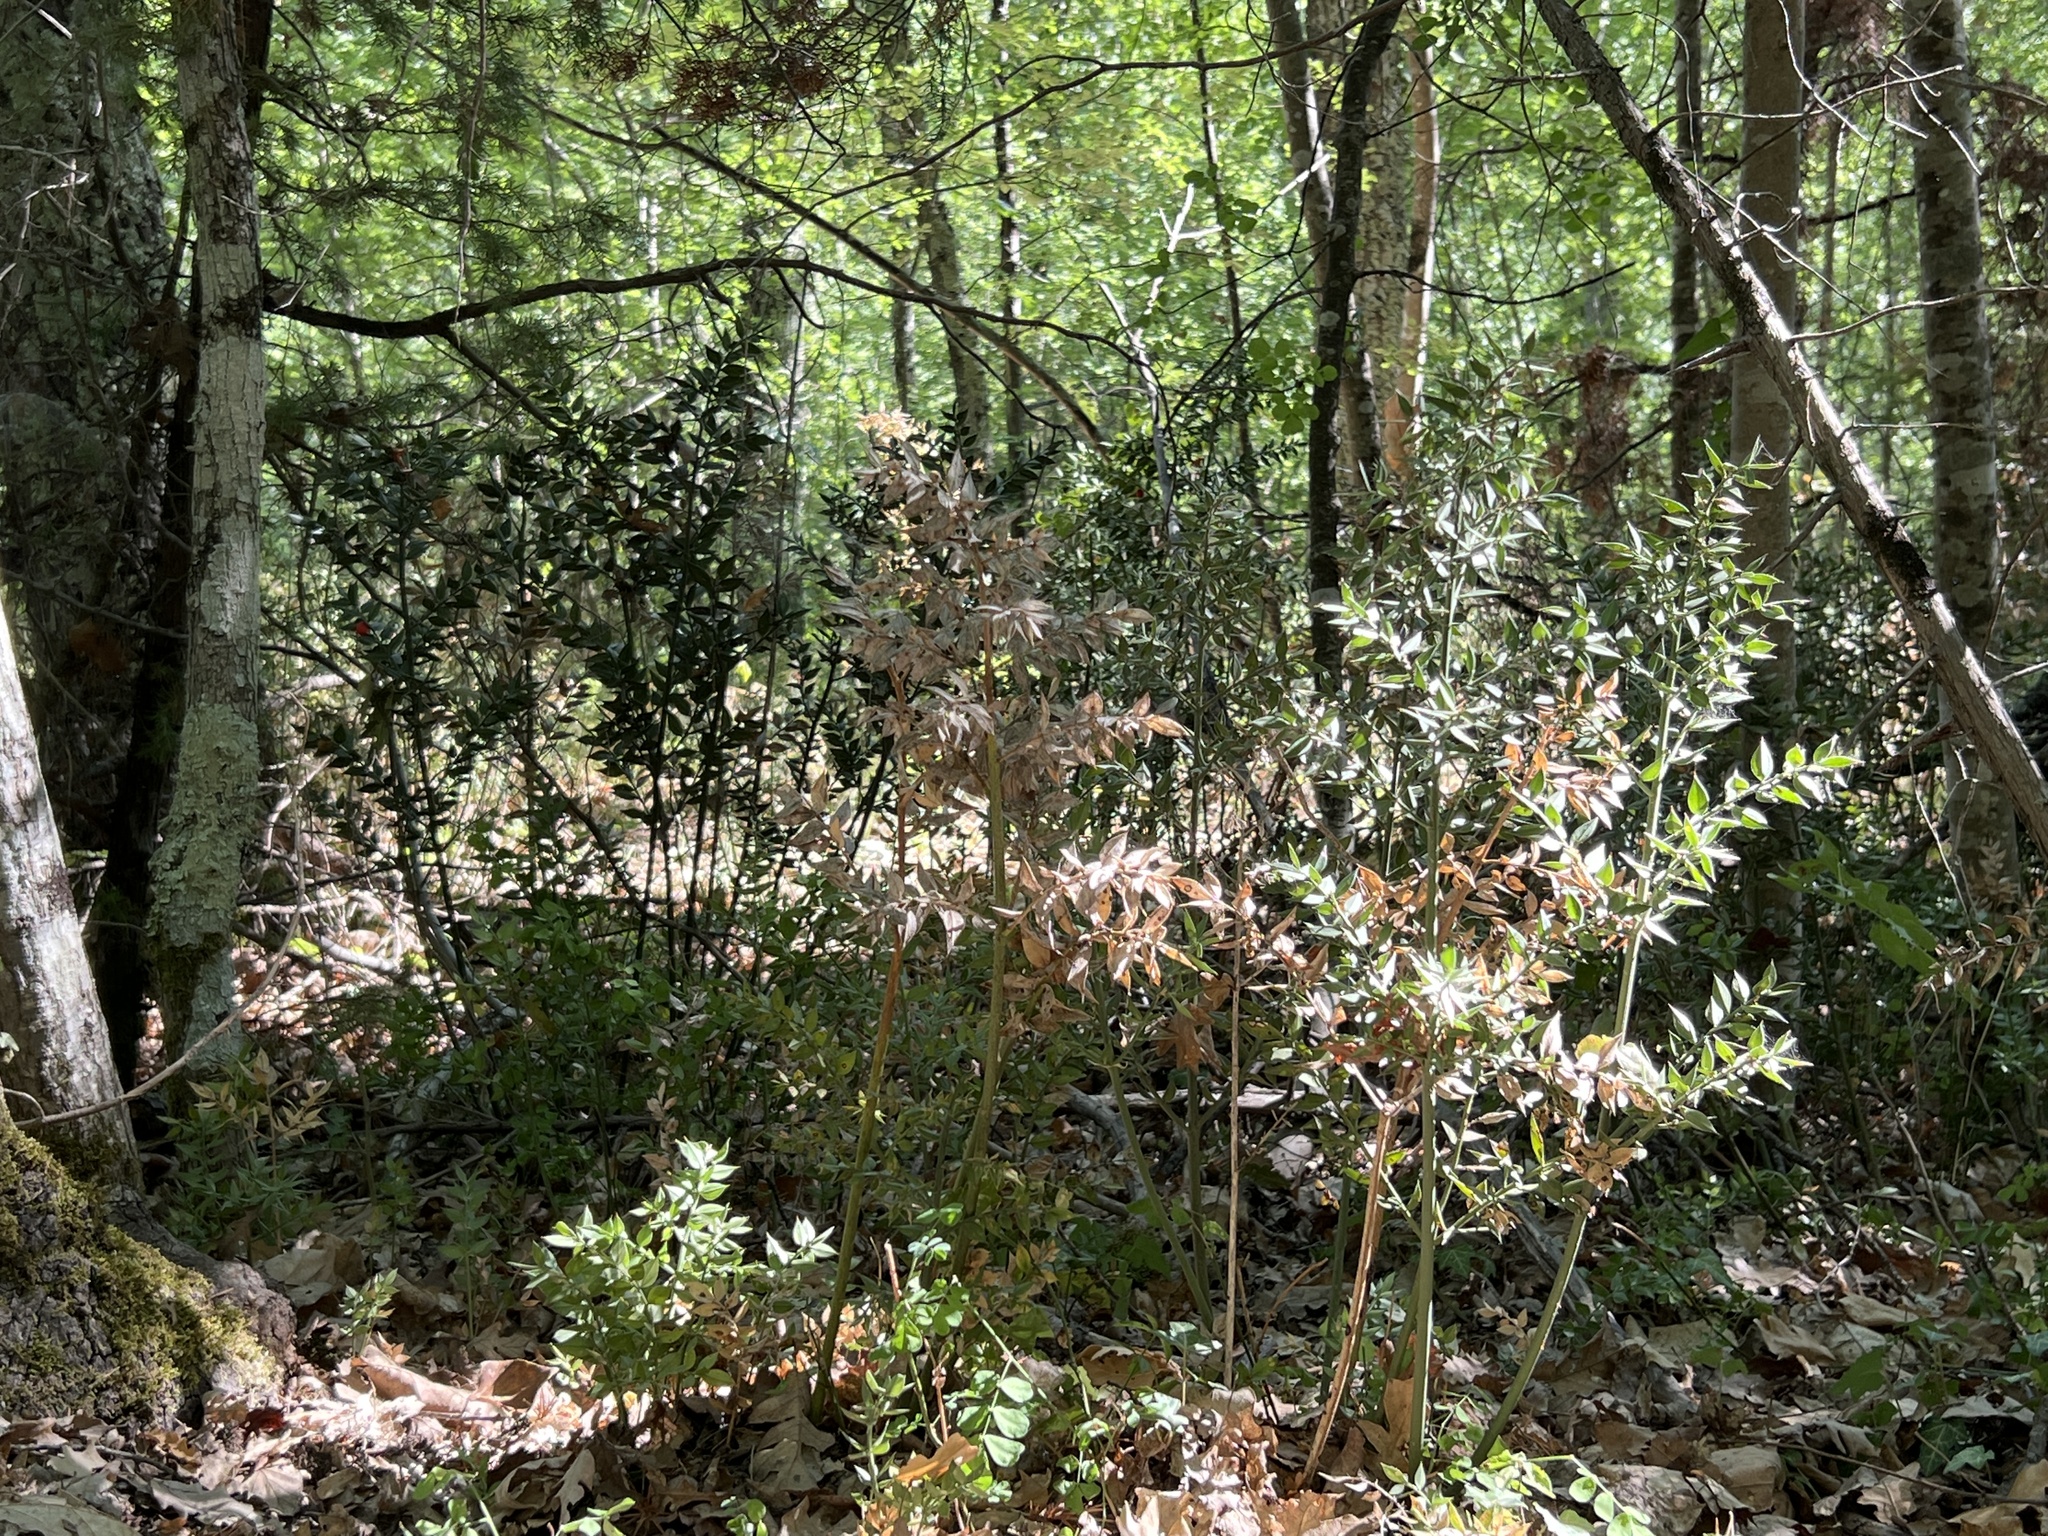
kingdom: Plantae
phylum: Tracheophyta
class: Liliopsida
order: Asparagales
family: Asparagaceae
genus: Ruscus
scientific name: Ruscus aculeatus
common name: Butcher's-broom
